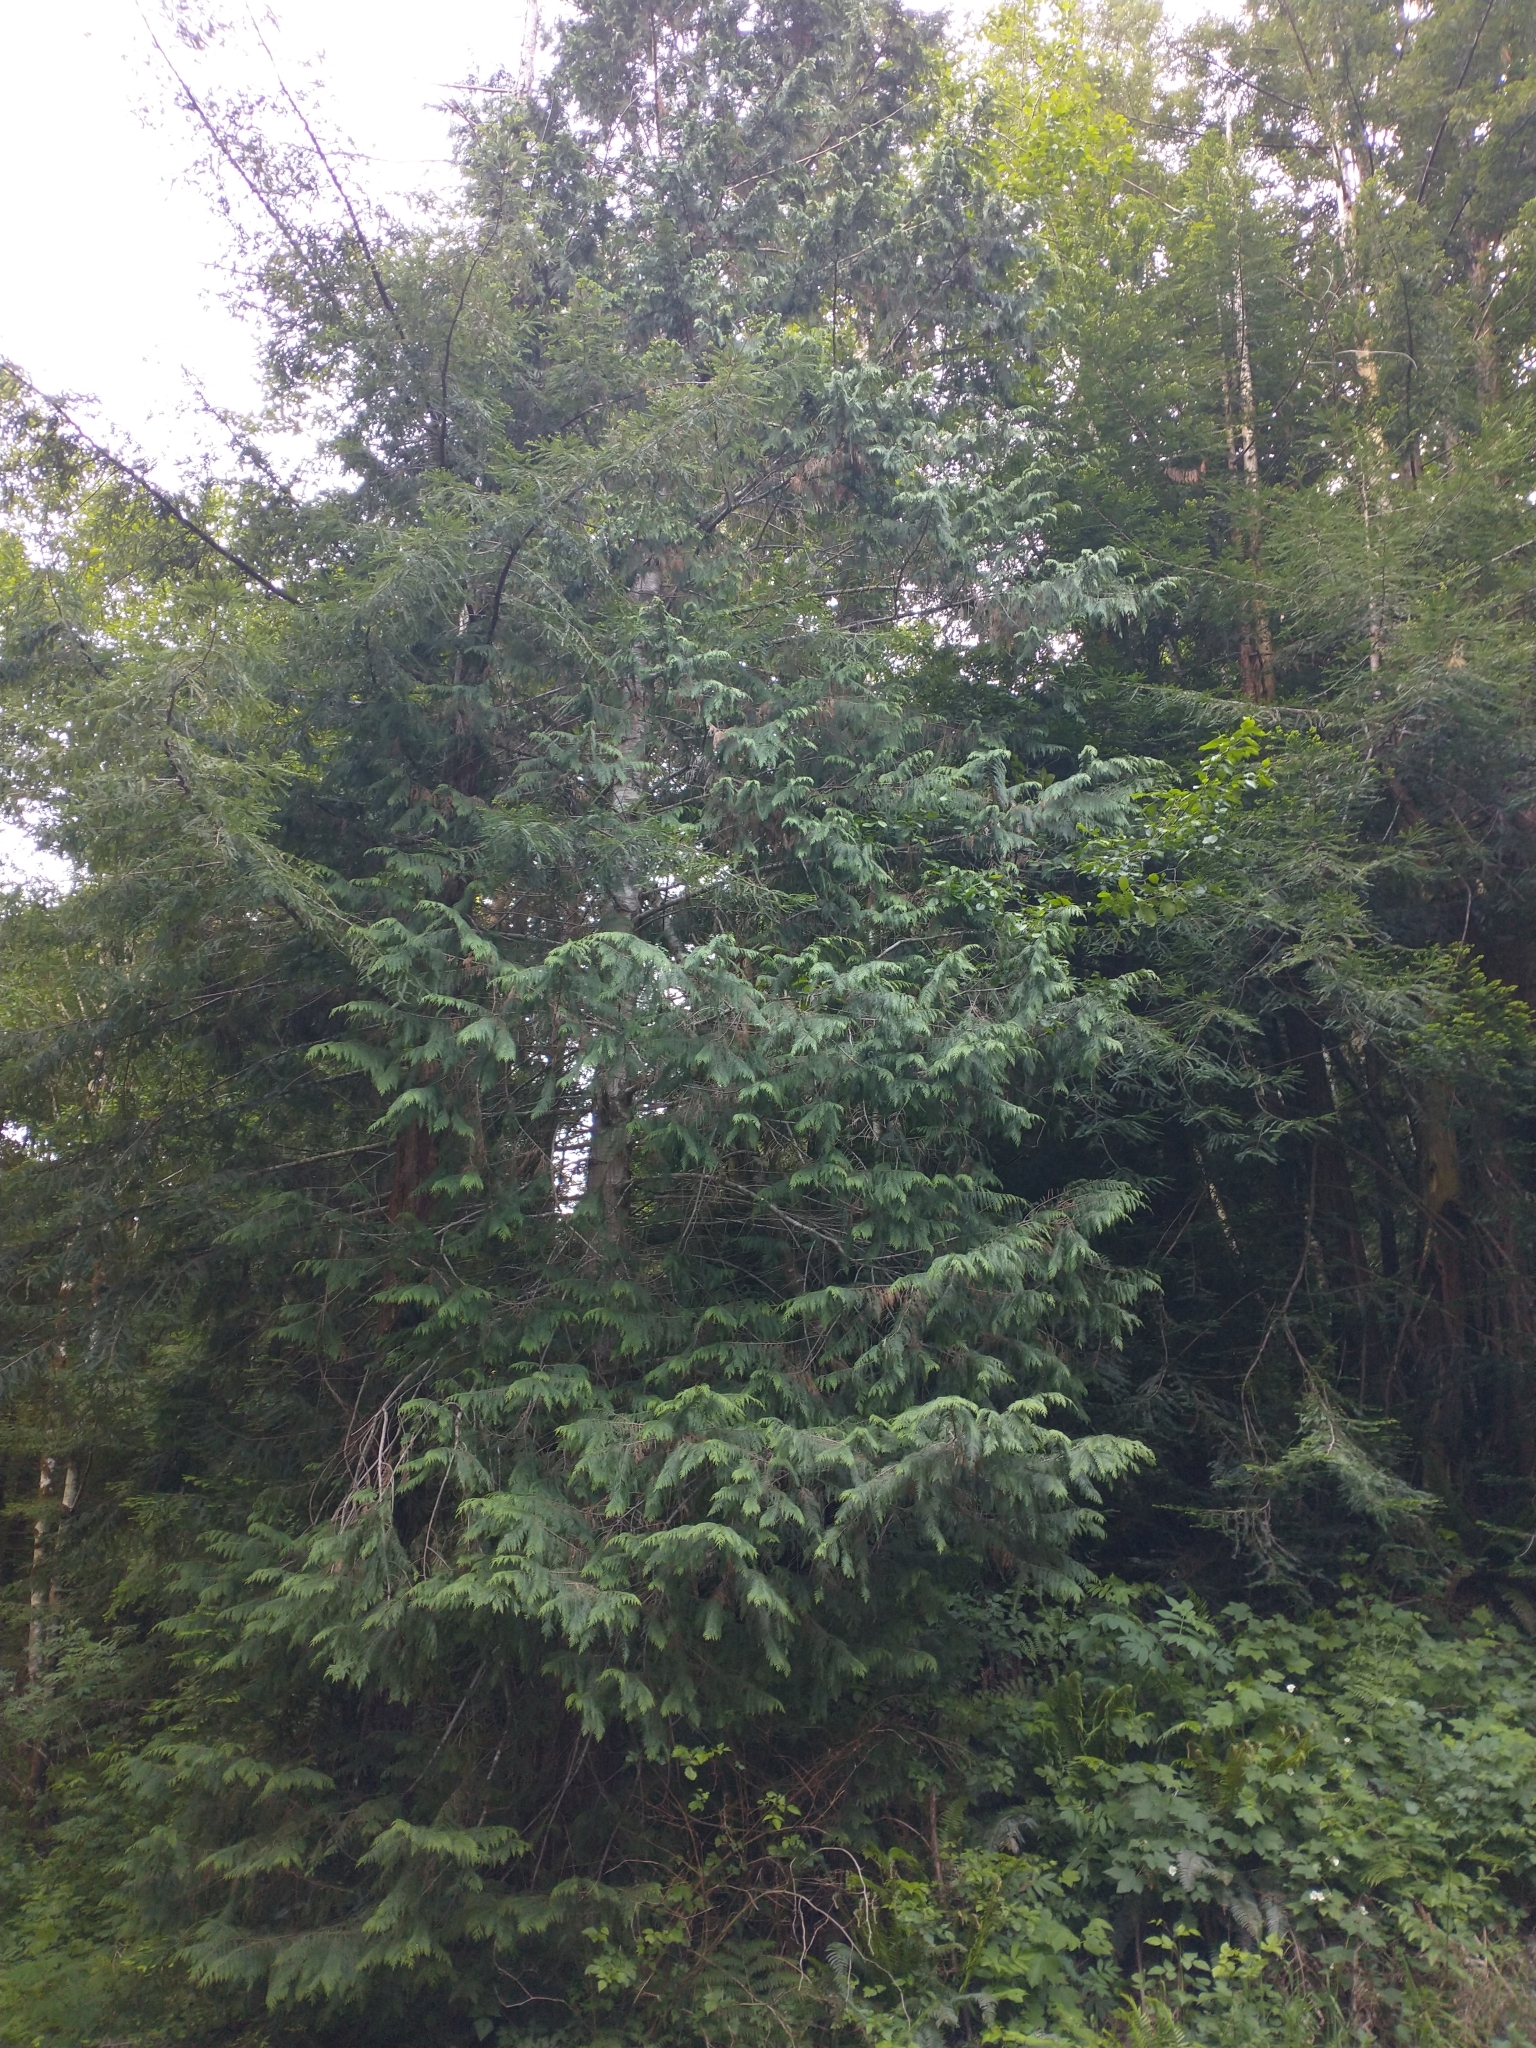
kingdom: Plantae
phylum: Tracheophyta
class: Pinopsida
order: Pinales
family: Cupressaceae
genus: Chamaecyparis
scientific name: Chamaecyparis lawsoniana
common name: Lawson's cypress
